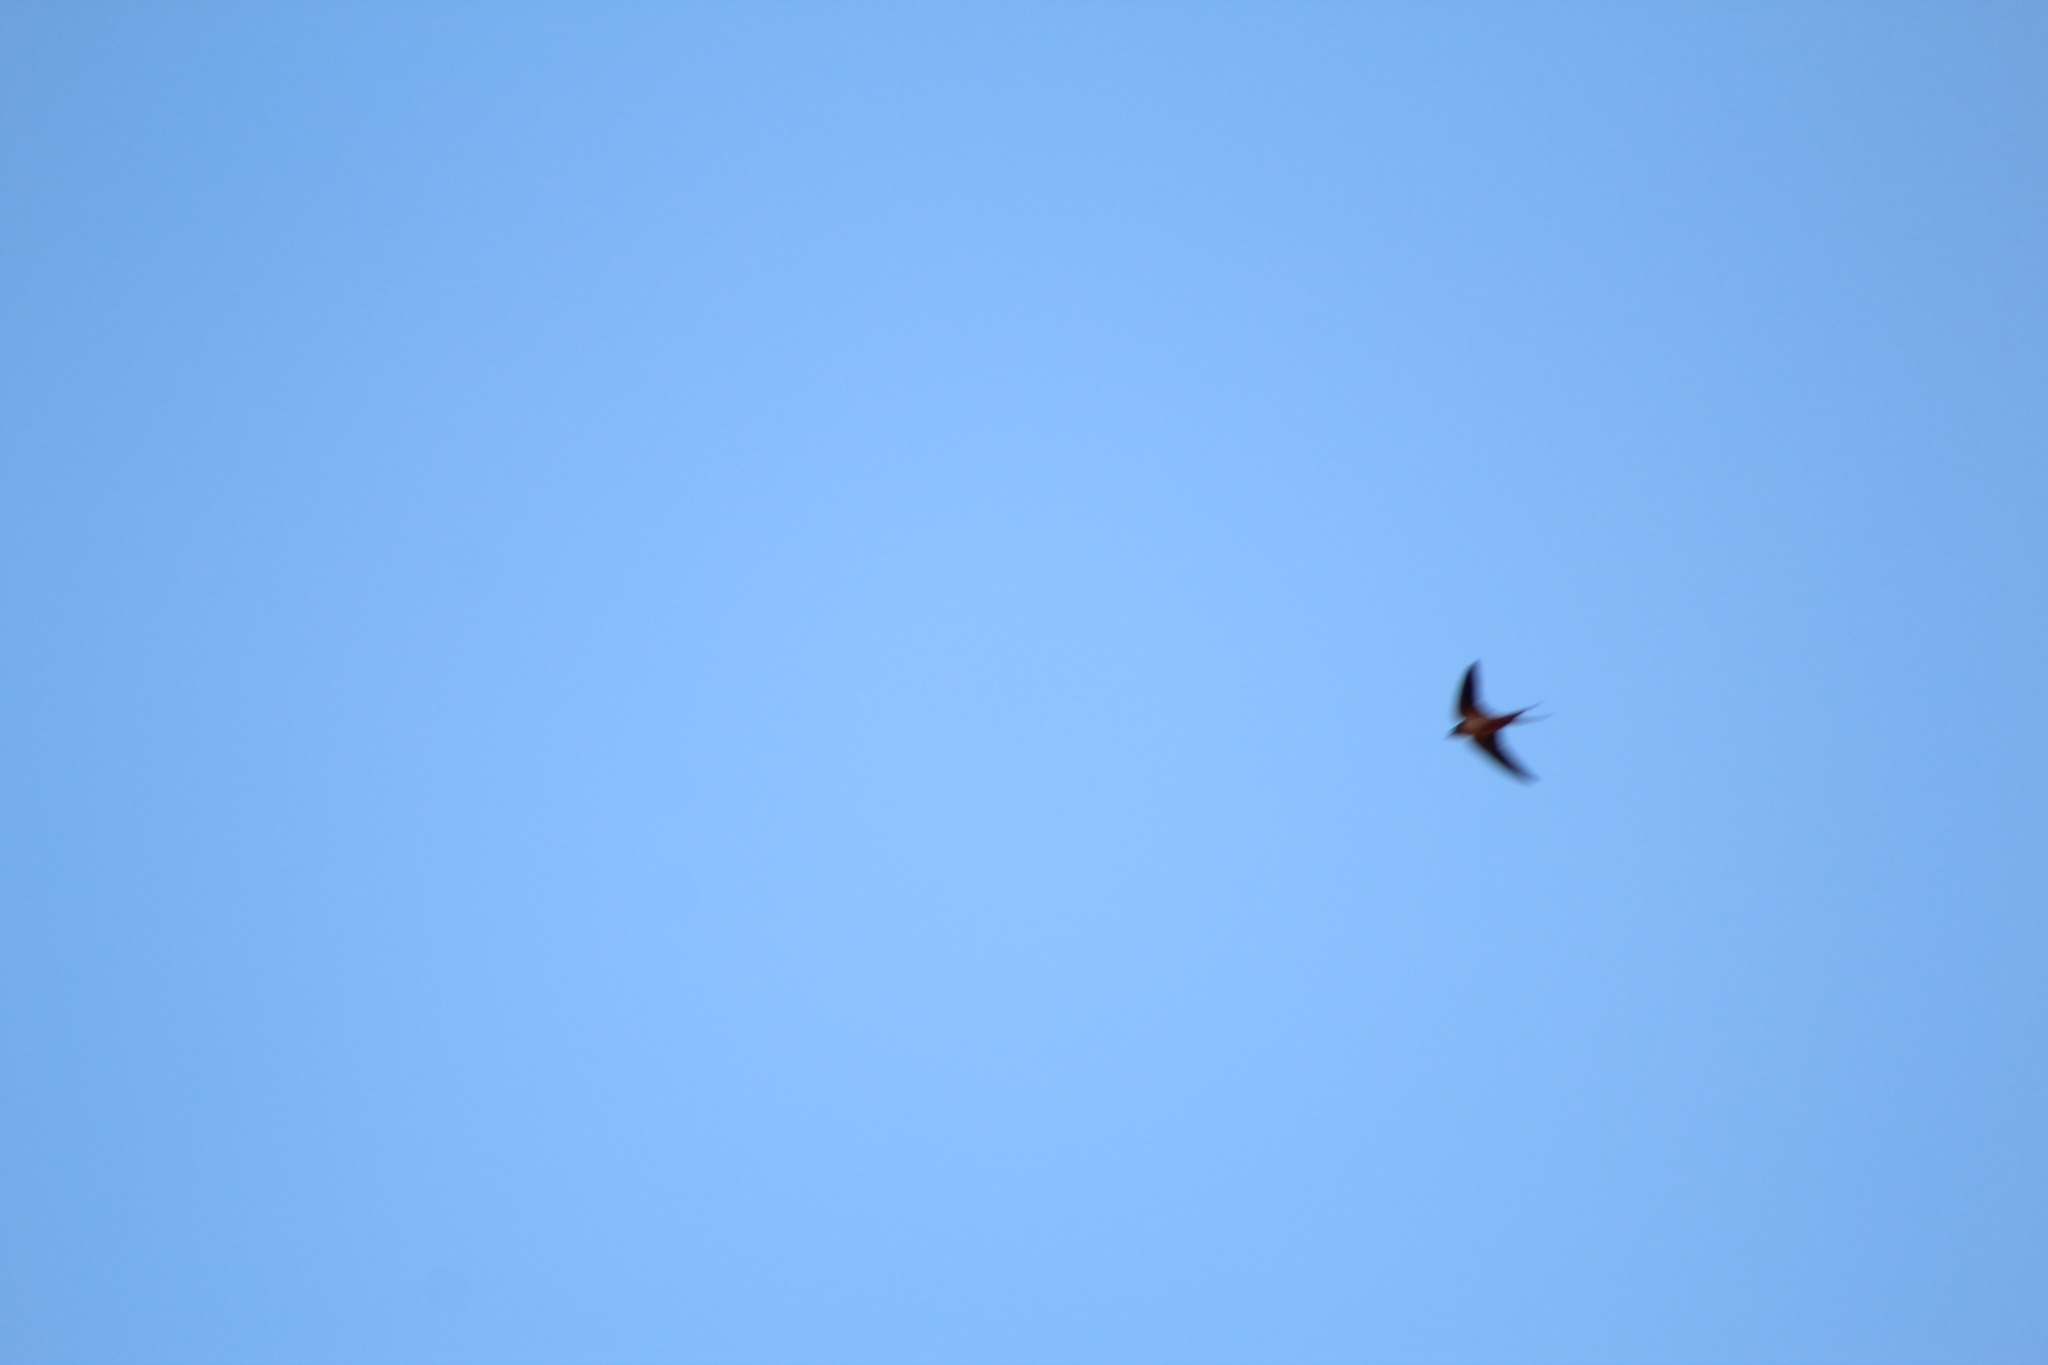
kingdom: Animalia
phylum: Chordata
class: Aves
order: Passeriformes
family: Hirundinidae
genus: Hirundo
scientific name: Hirundo rustica
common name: Barn swallow
